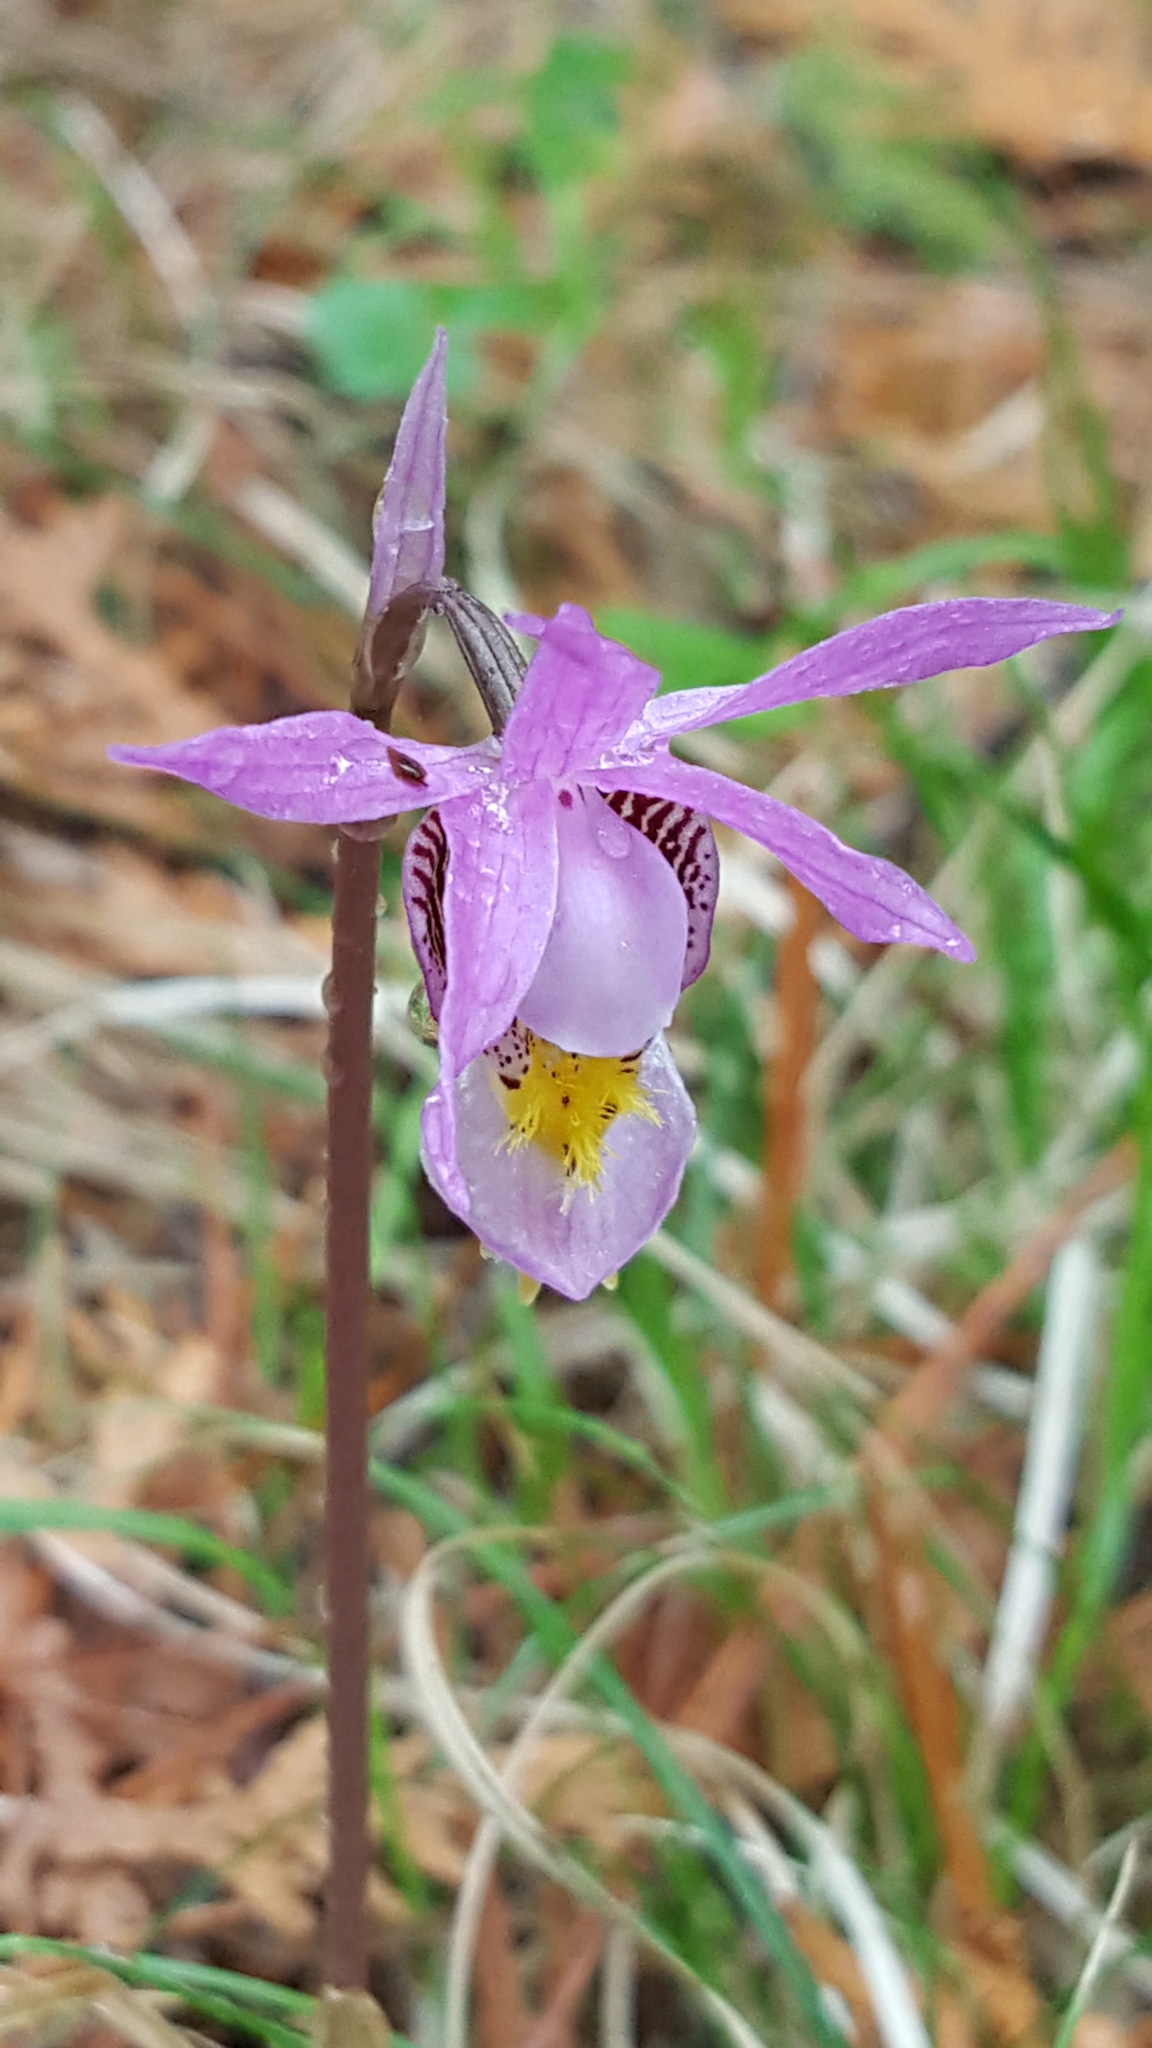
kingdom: Plantae
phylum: Tracheophyta
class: Liliopsida
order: Asparagales
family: Orchidaceae
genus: Calypso
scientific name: Calypso bulbosa
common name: Calypso
